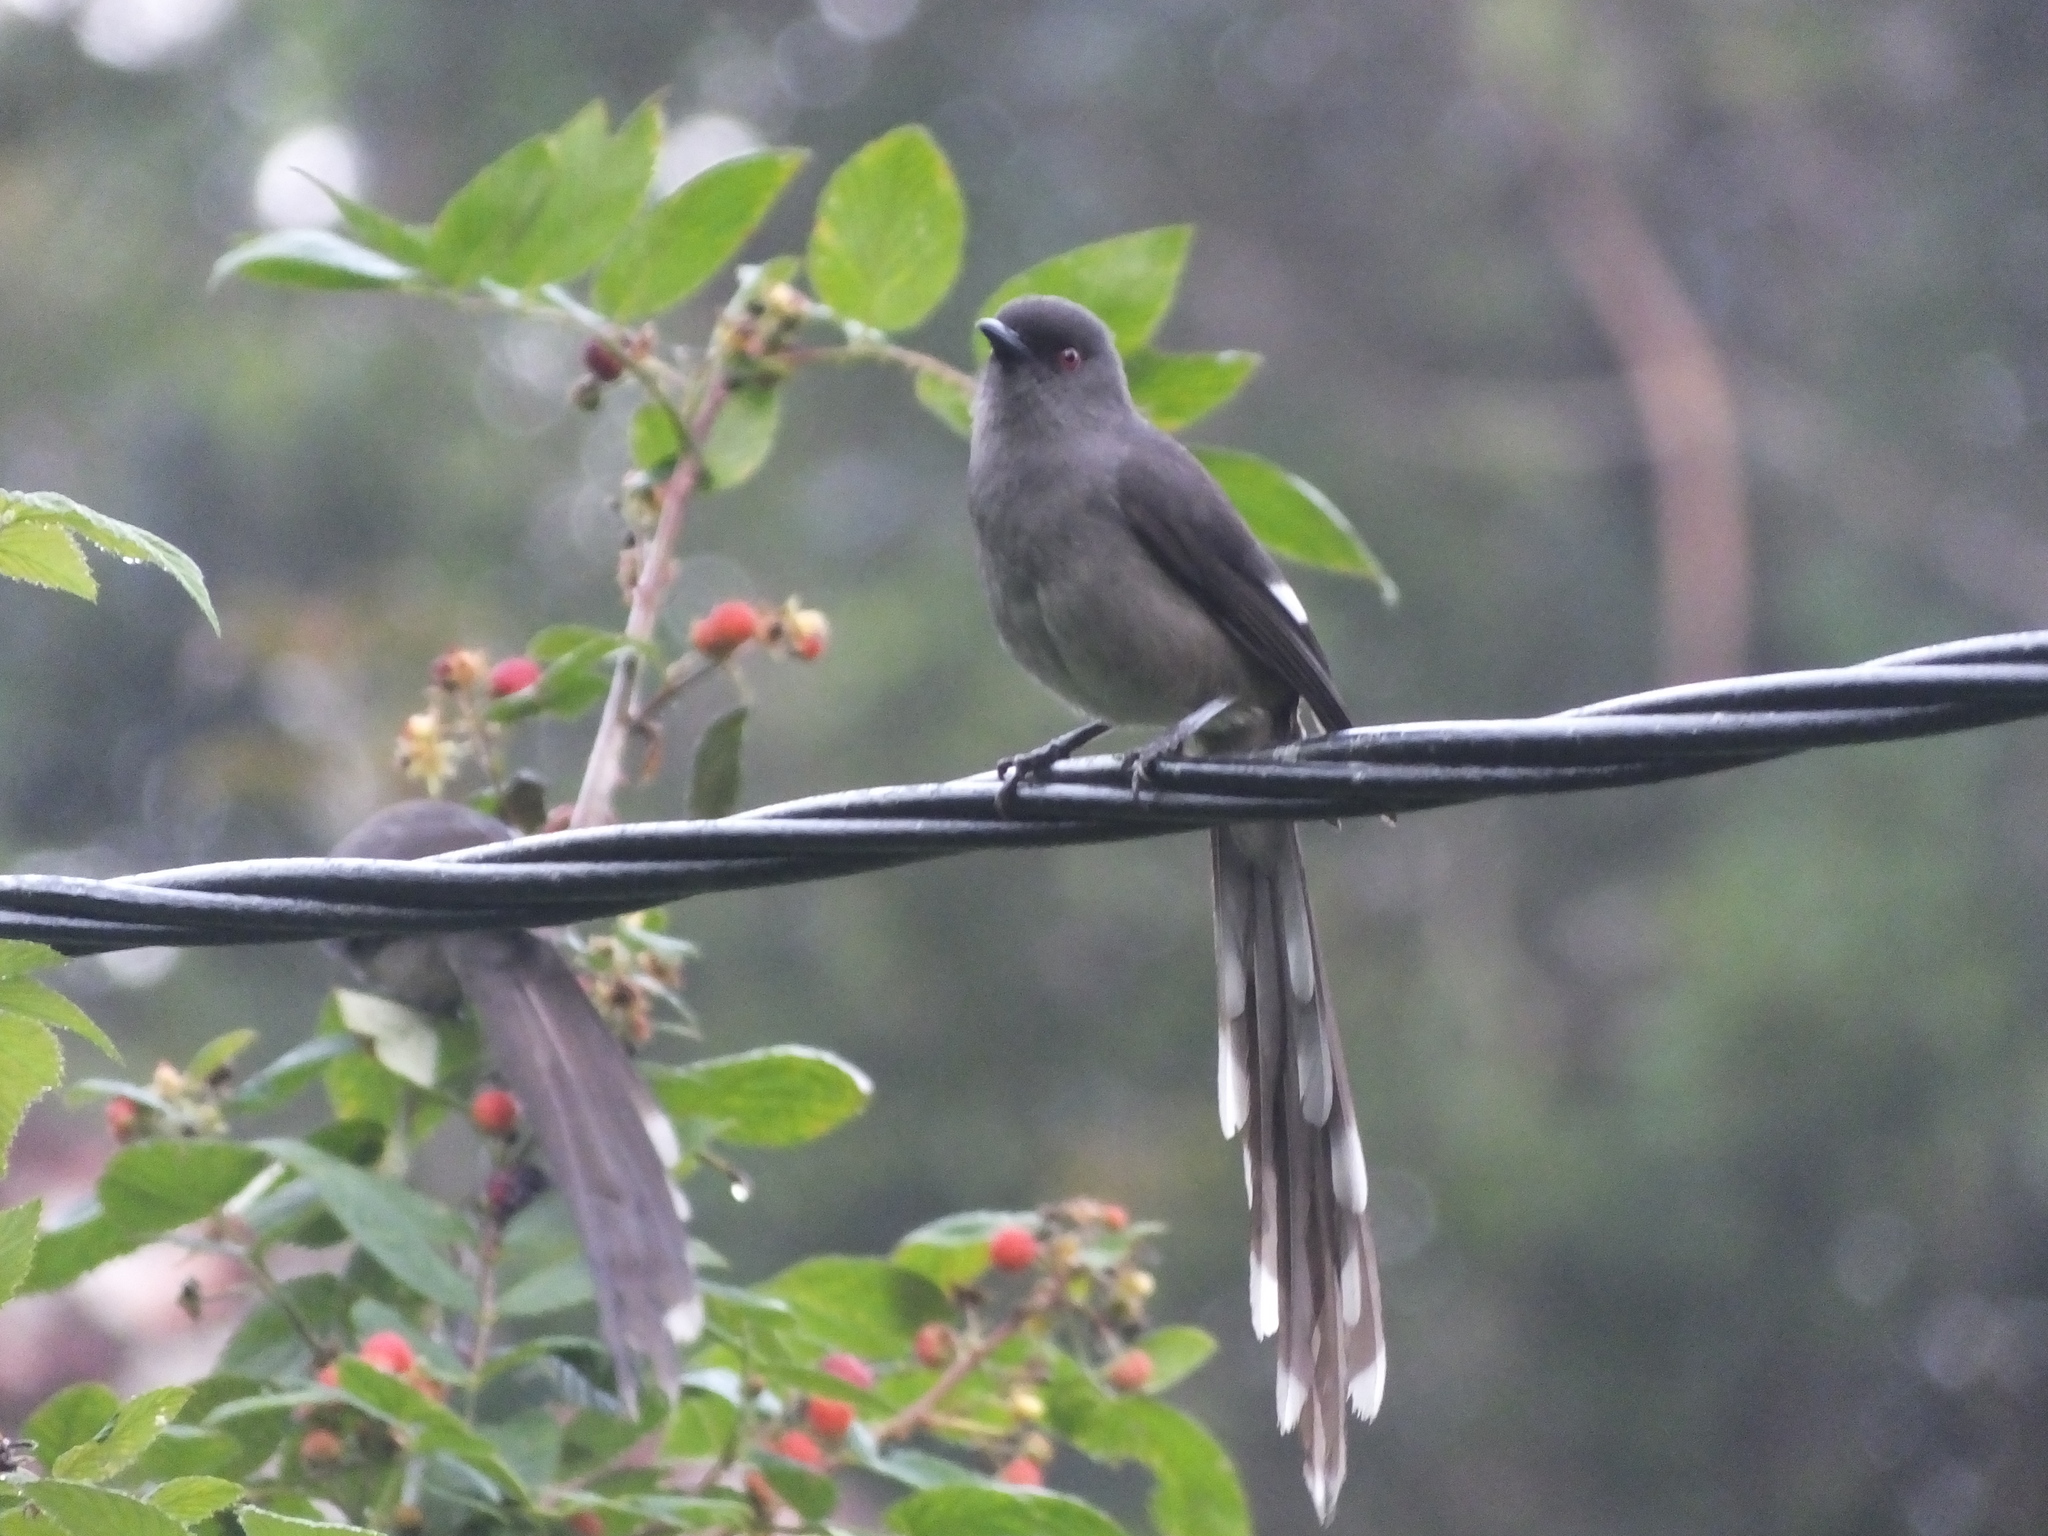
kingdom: Animalia
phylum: Chordata
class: Aves
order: Passeriformes
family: Leiothrichidae
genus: Heterophasia
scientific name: Heterophasia picaoides
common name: Long-tailed sibia
